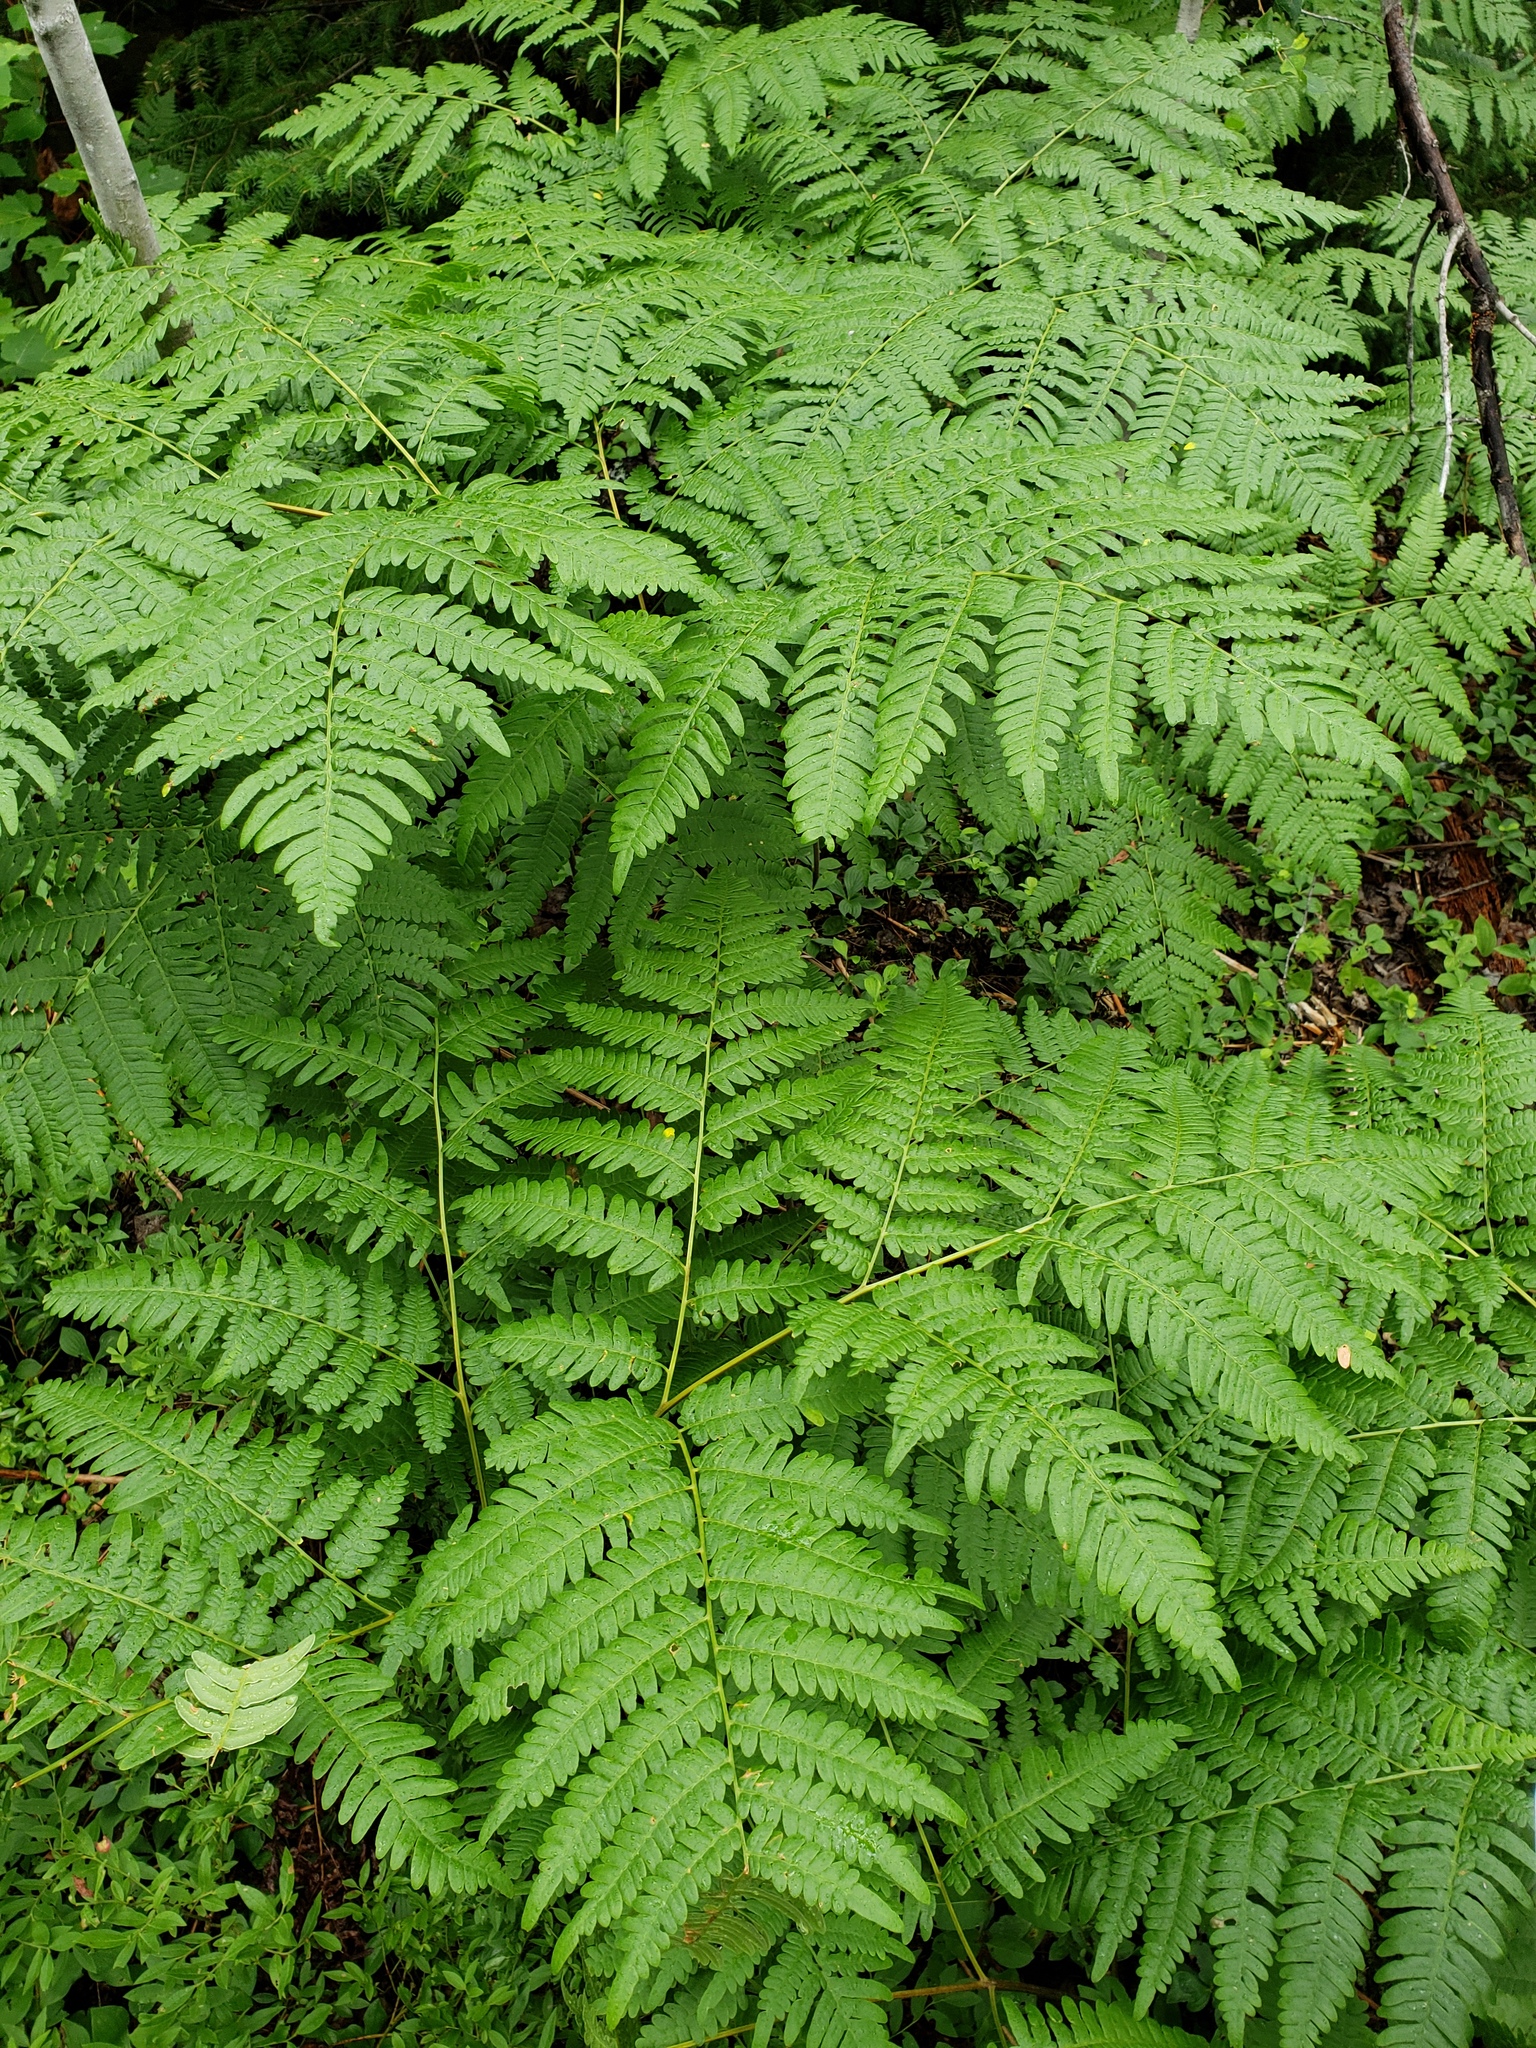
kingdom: Plantae
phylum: Tracheophyta
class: Polypodiopsida
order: Polypodiales
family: Dennstaedtiaceae
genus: Pteridium
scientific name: Pteridium aquilinum
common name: Bracken
